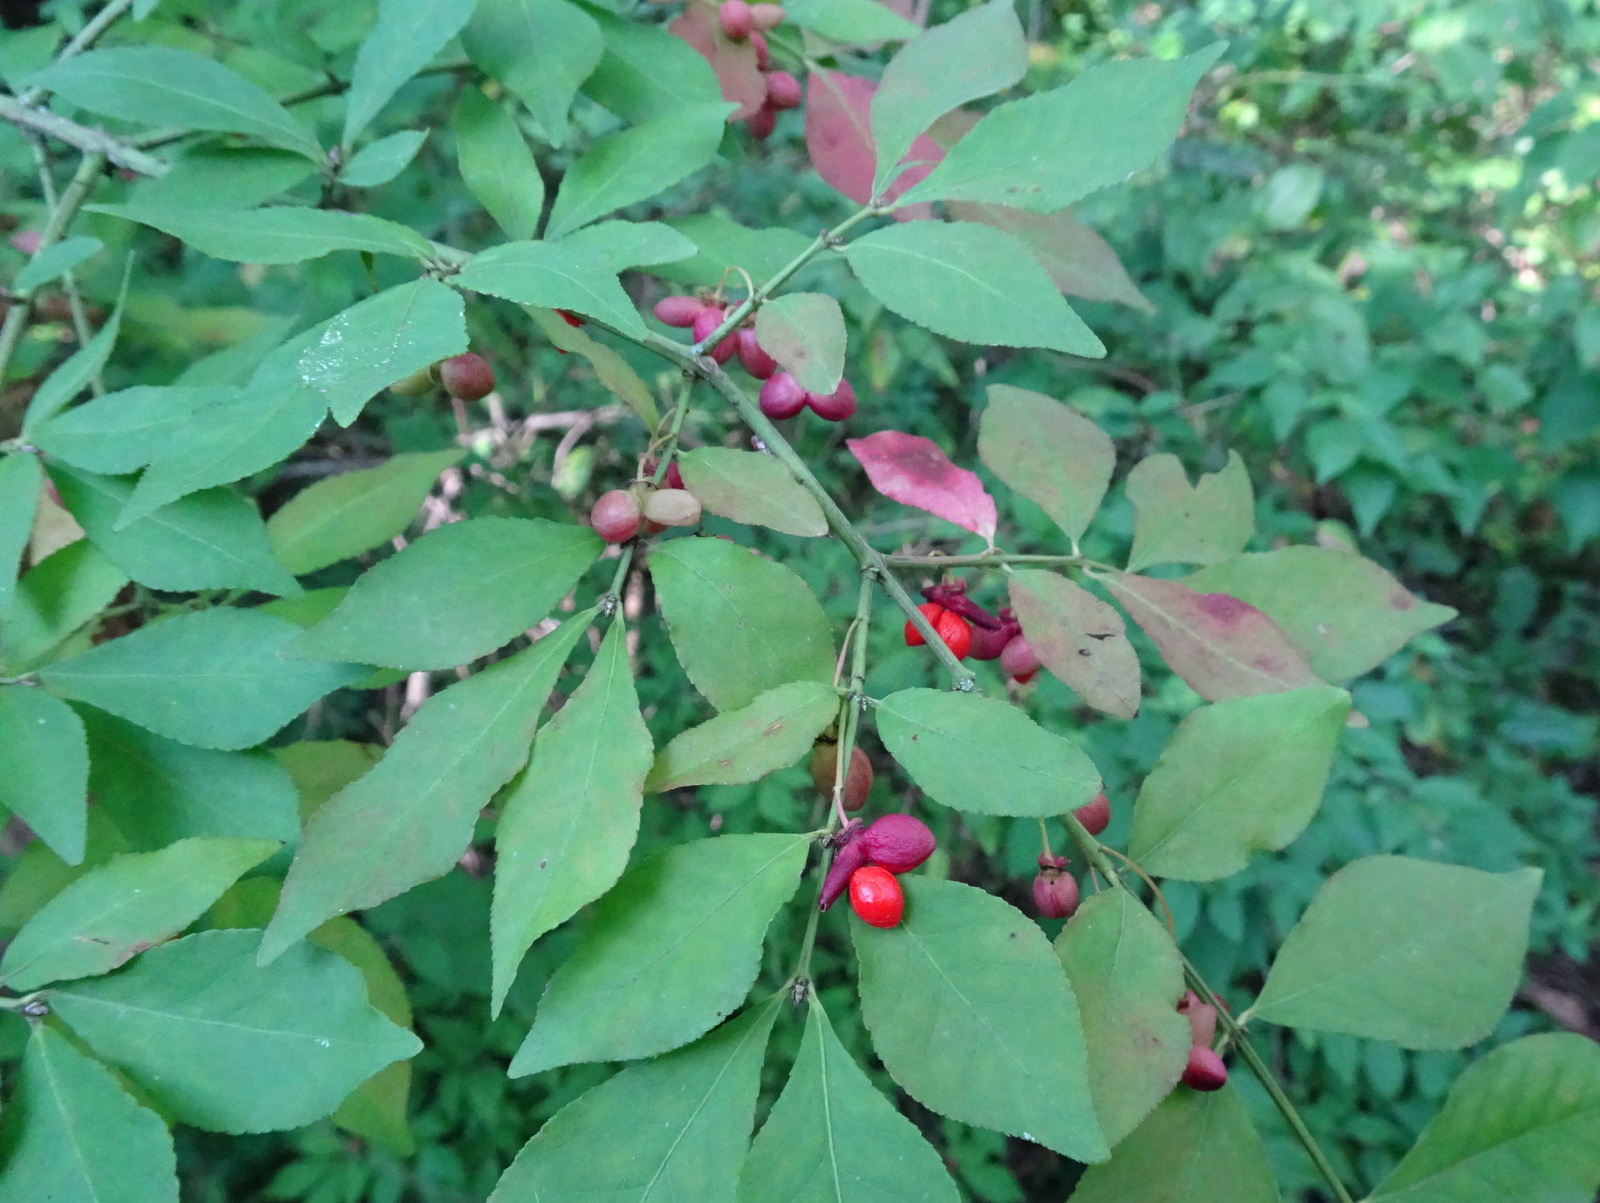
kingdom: Plantae
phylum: Tracheophyta
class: Magnoliopsida
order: Celastrales
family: Celastraceae
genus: Euonymus
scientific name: Euonymus alatus
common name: Winged euonymus
